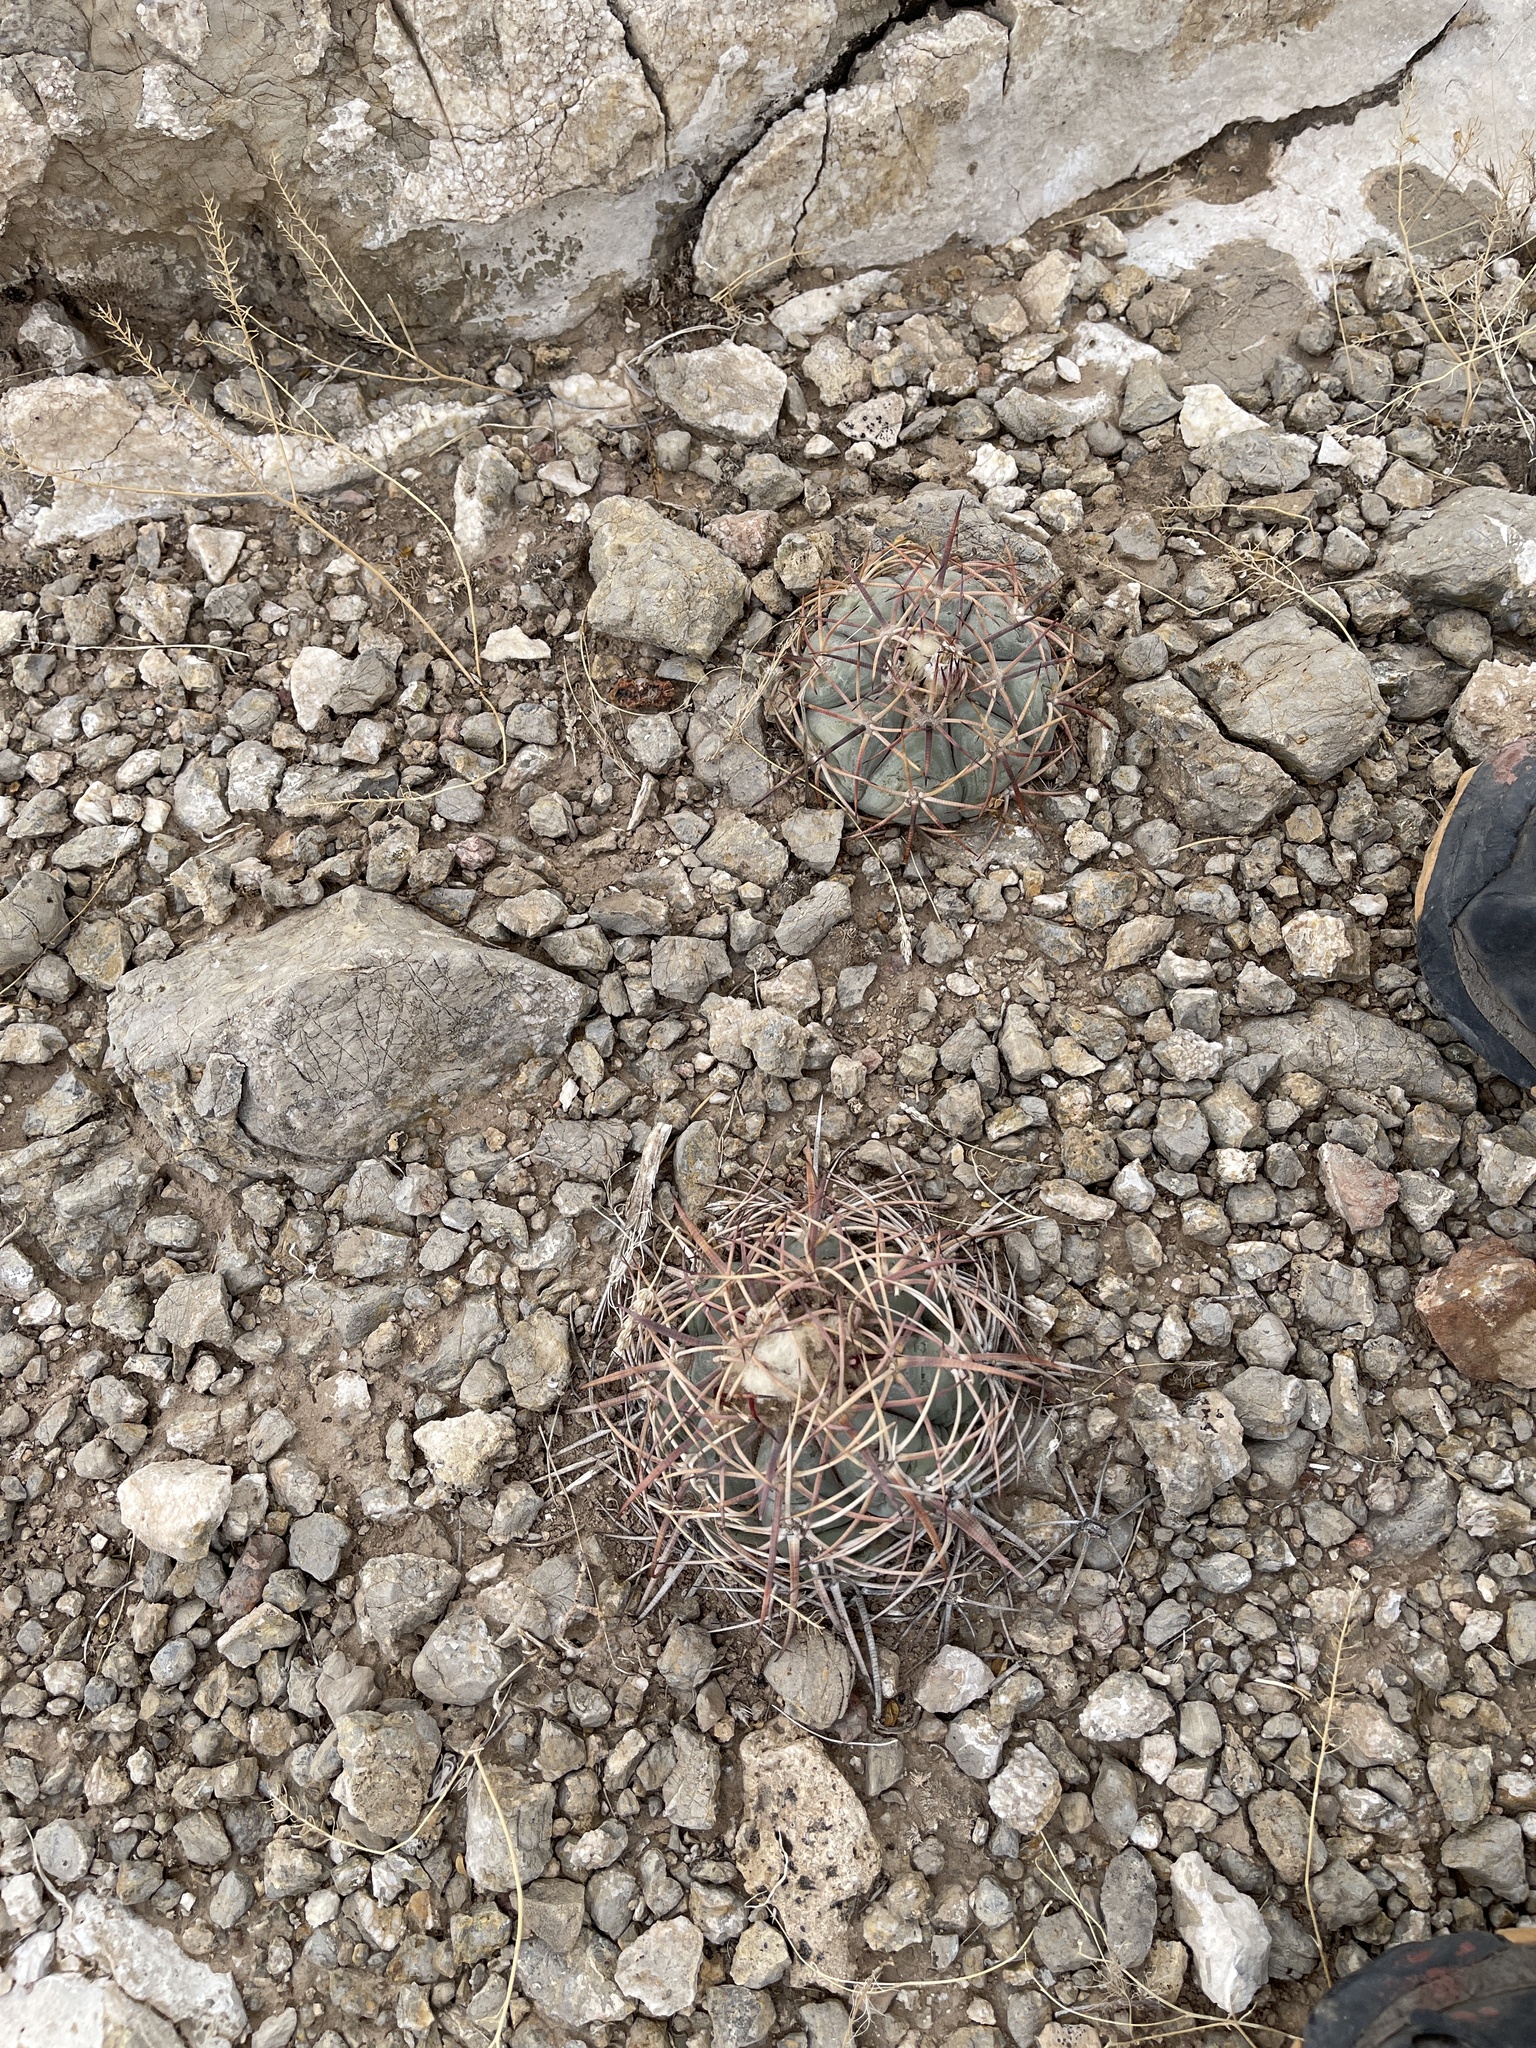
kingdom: Plantae
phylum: Tracheophyta
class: Magnoliopsida
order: Caryophyllales
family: Cactaceae
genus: Echinocactus
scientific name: Echinocactus horizonthalonius
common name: Devilshead
